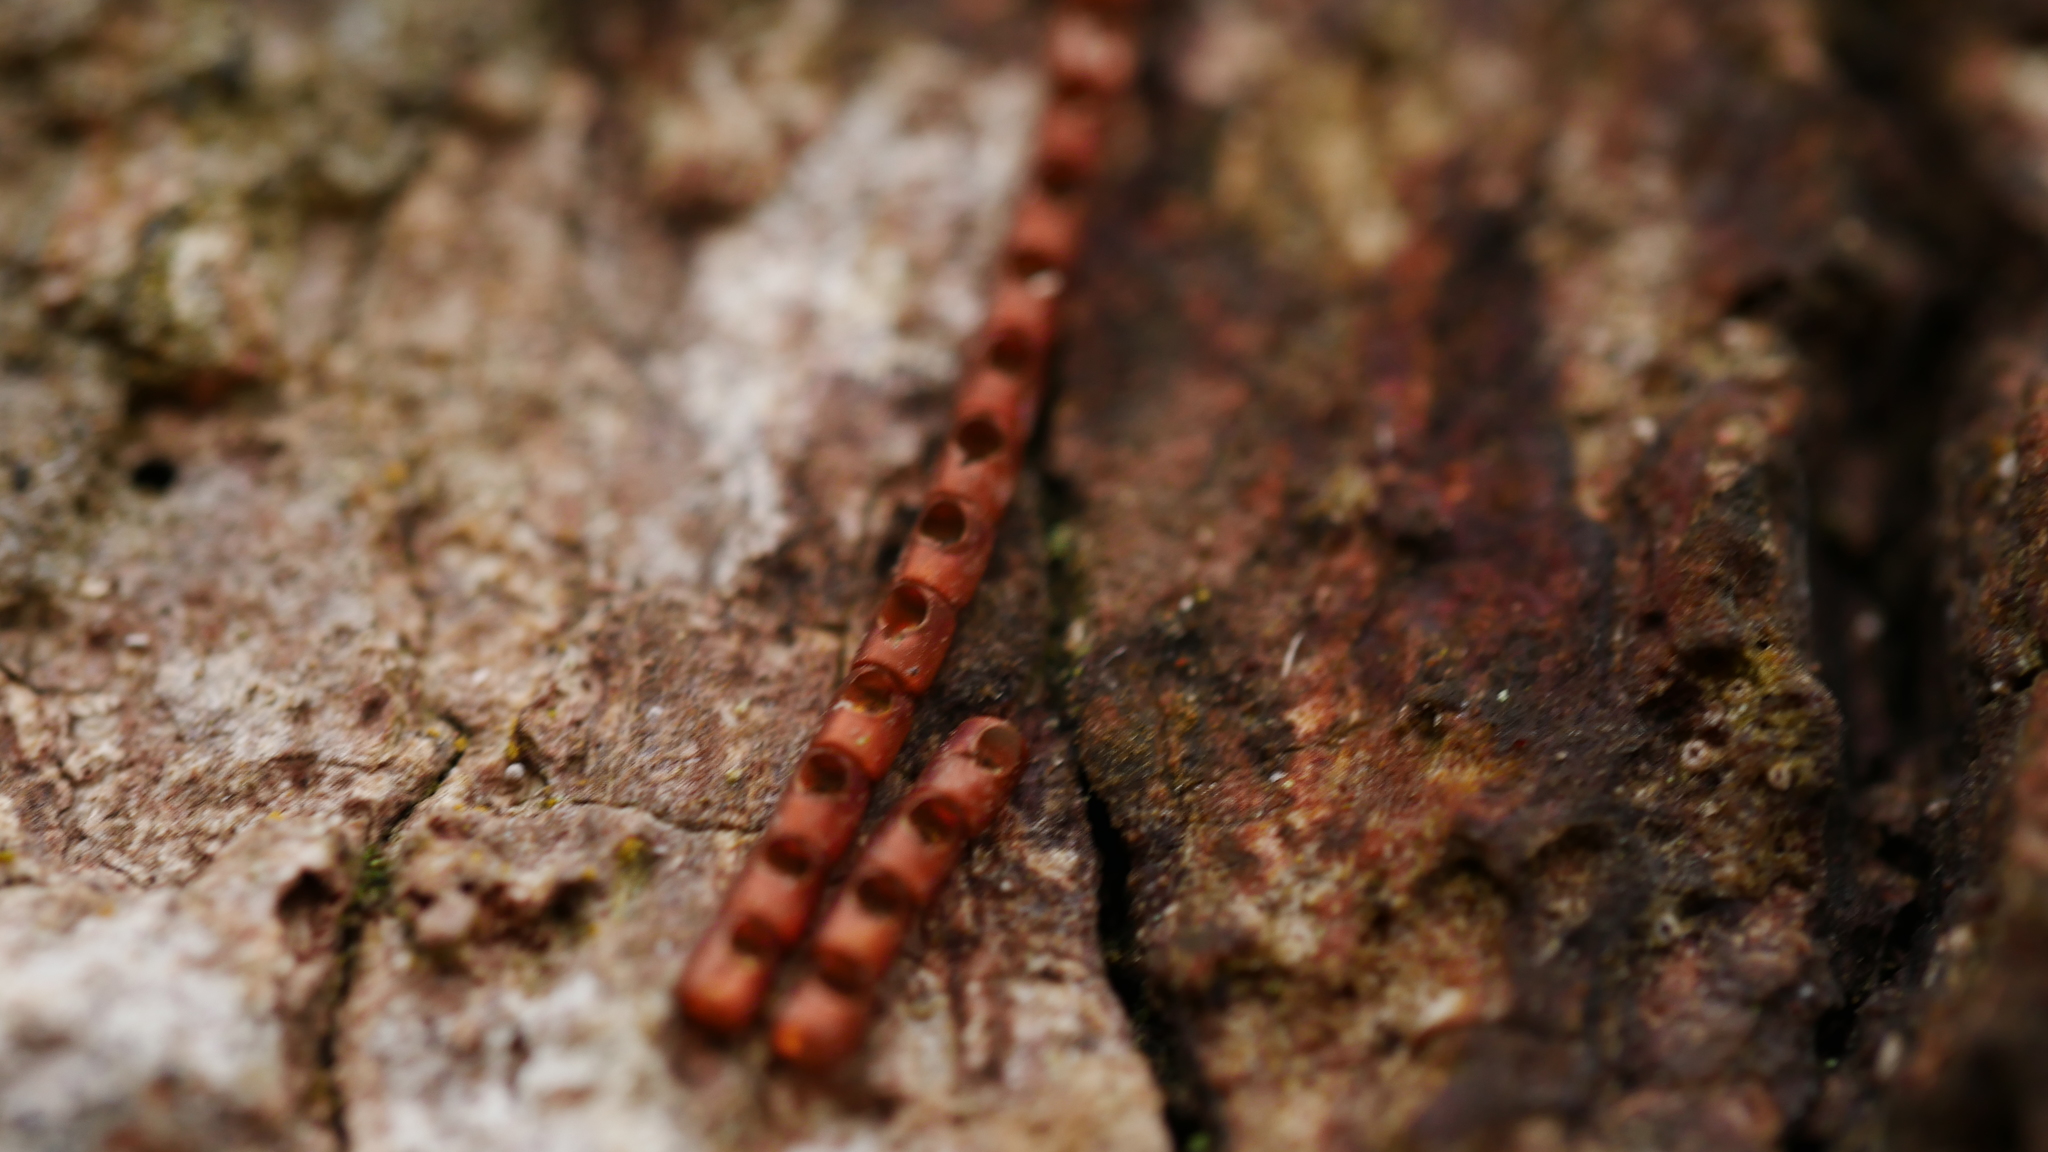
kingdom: Animalia
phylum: Arthropoda
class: Insecta
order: Hemiptera
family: Coreidae
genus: Leptoglossus
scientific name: Leptoglossus
